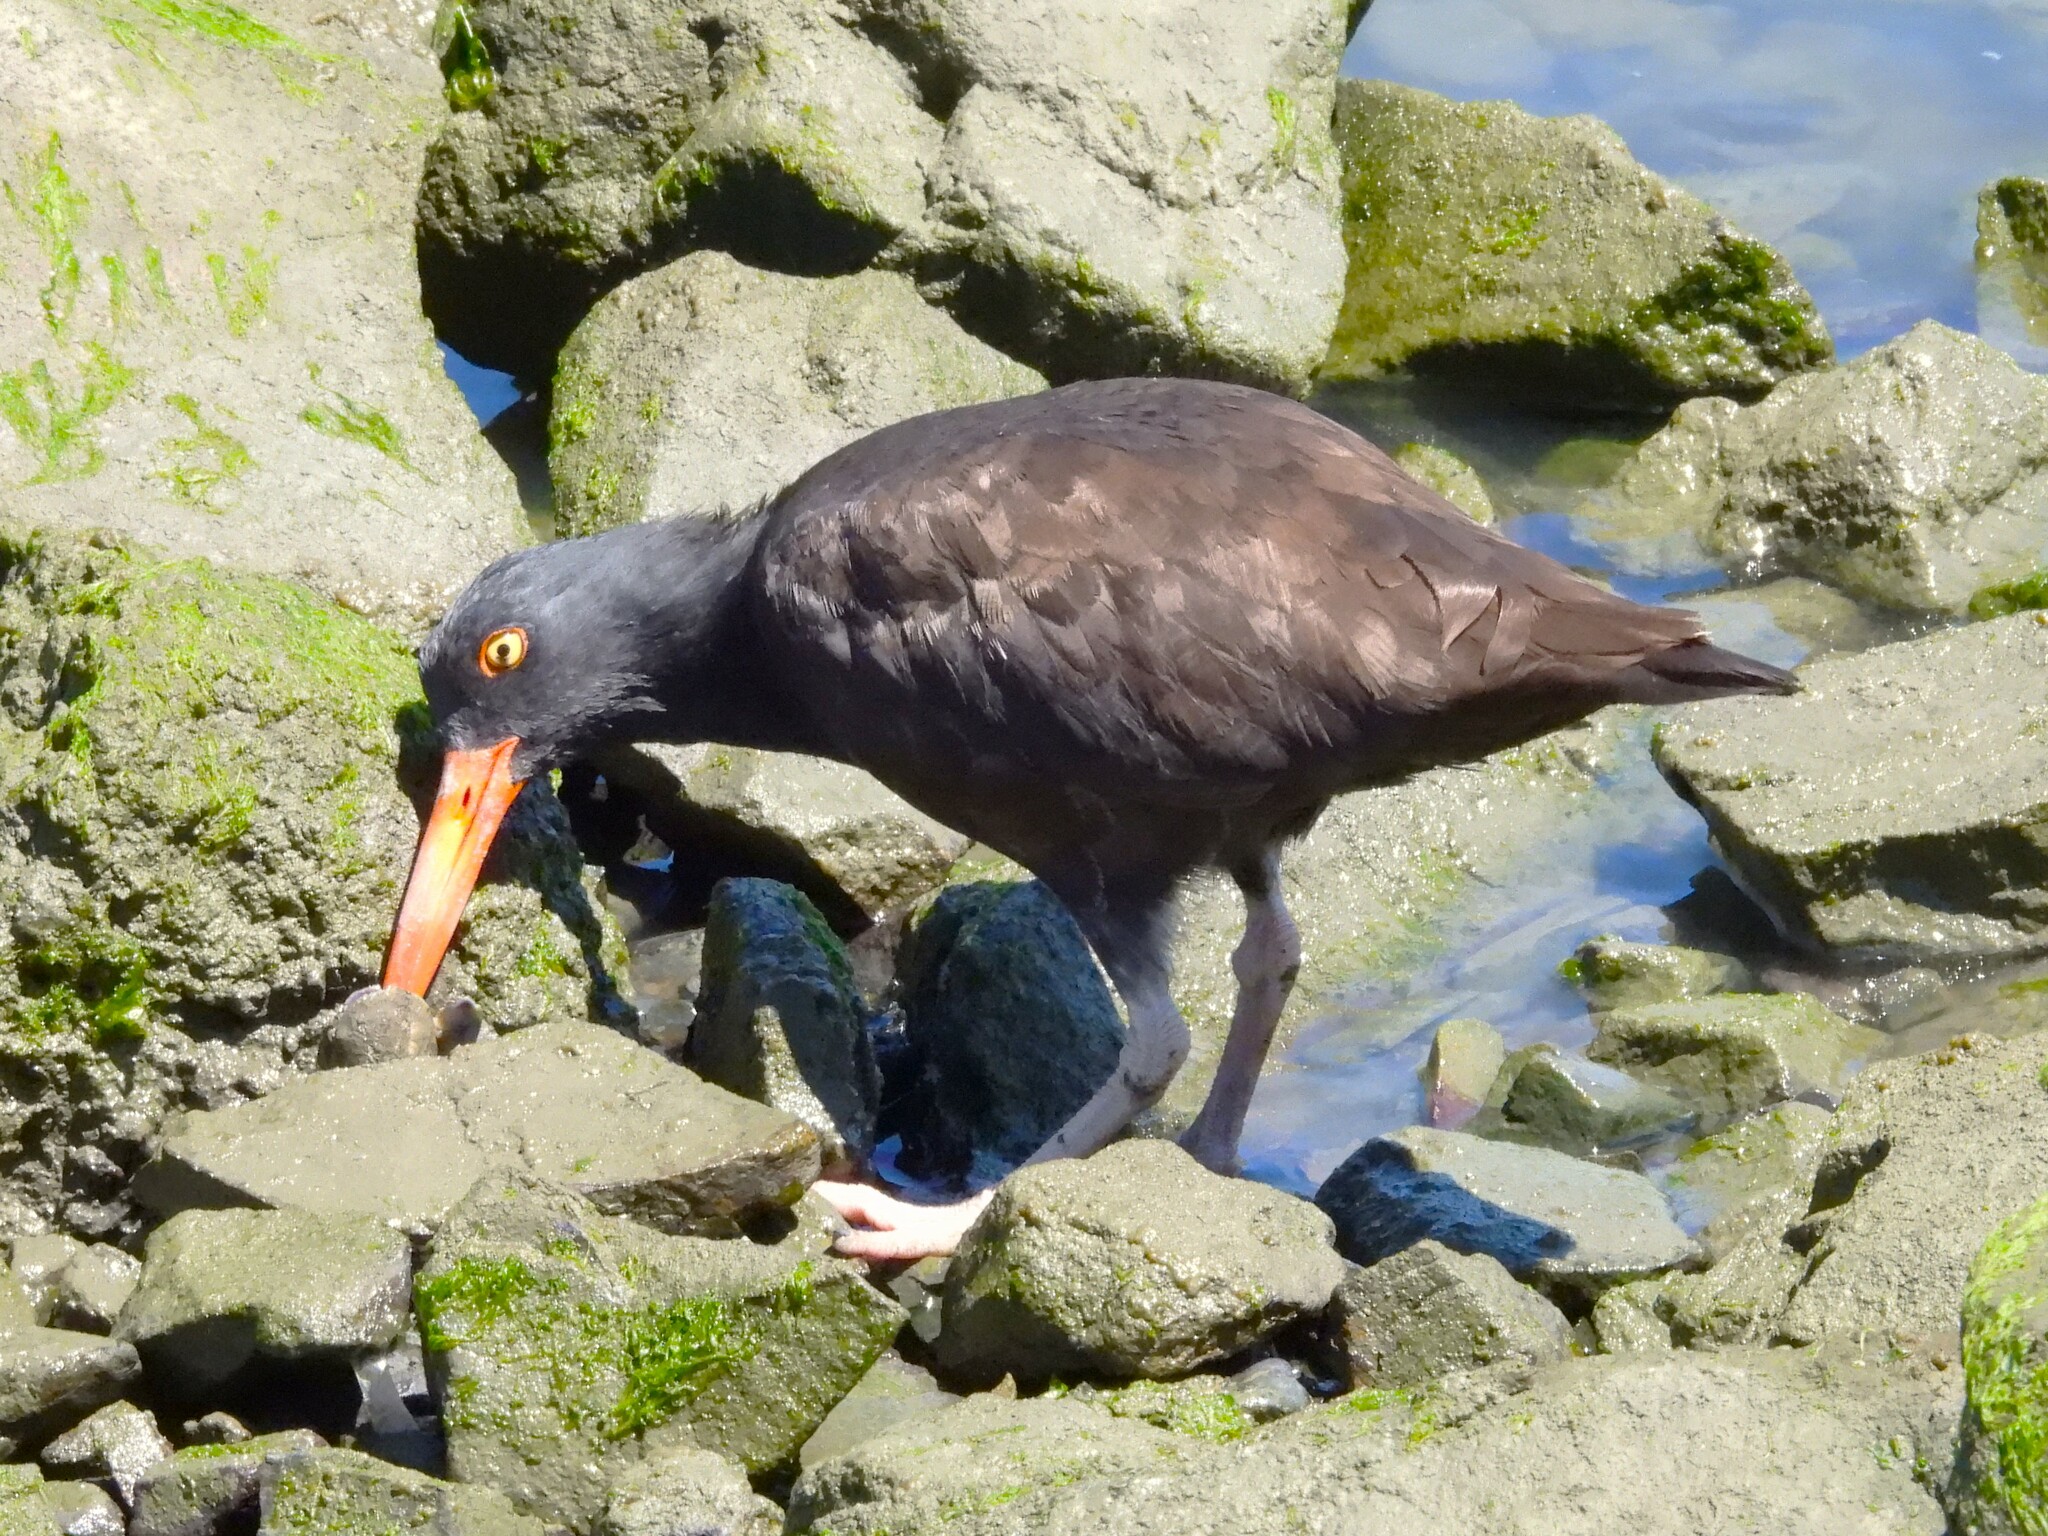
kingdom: Animalia
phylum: Chordata
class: Aves
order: Charadriiformes
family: Haematopodidae
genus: Haematopus
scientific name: Haematopus bachmani
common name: Black oystercatcher
